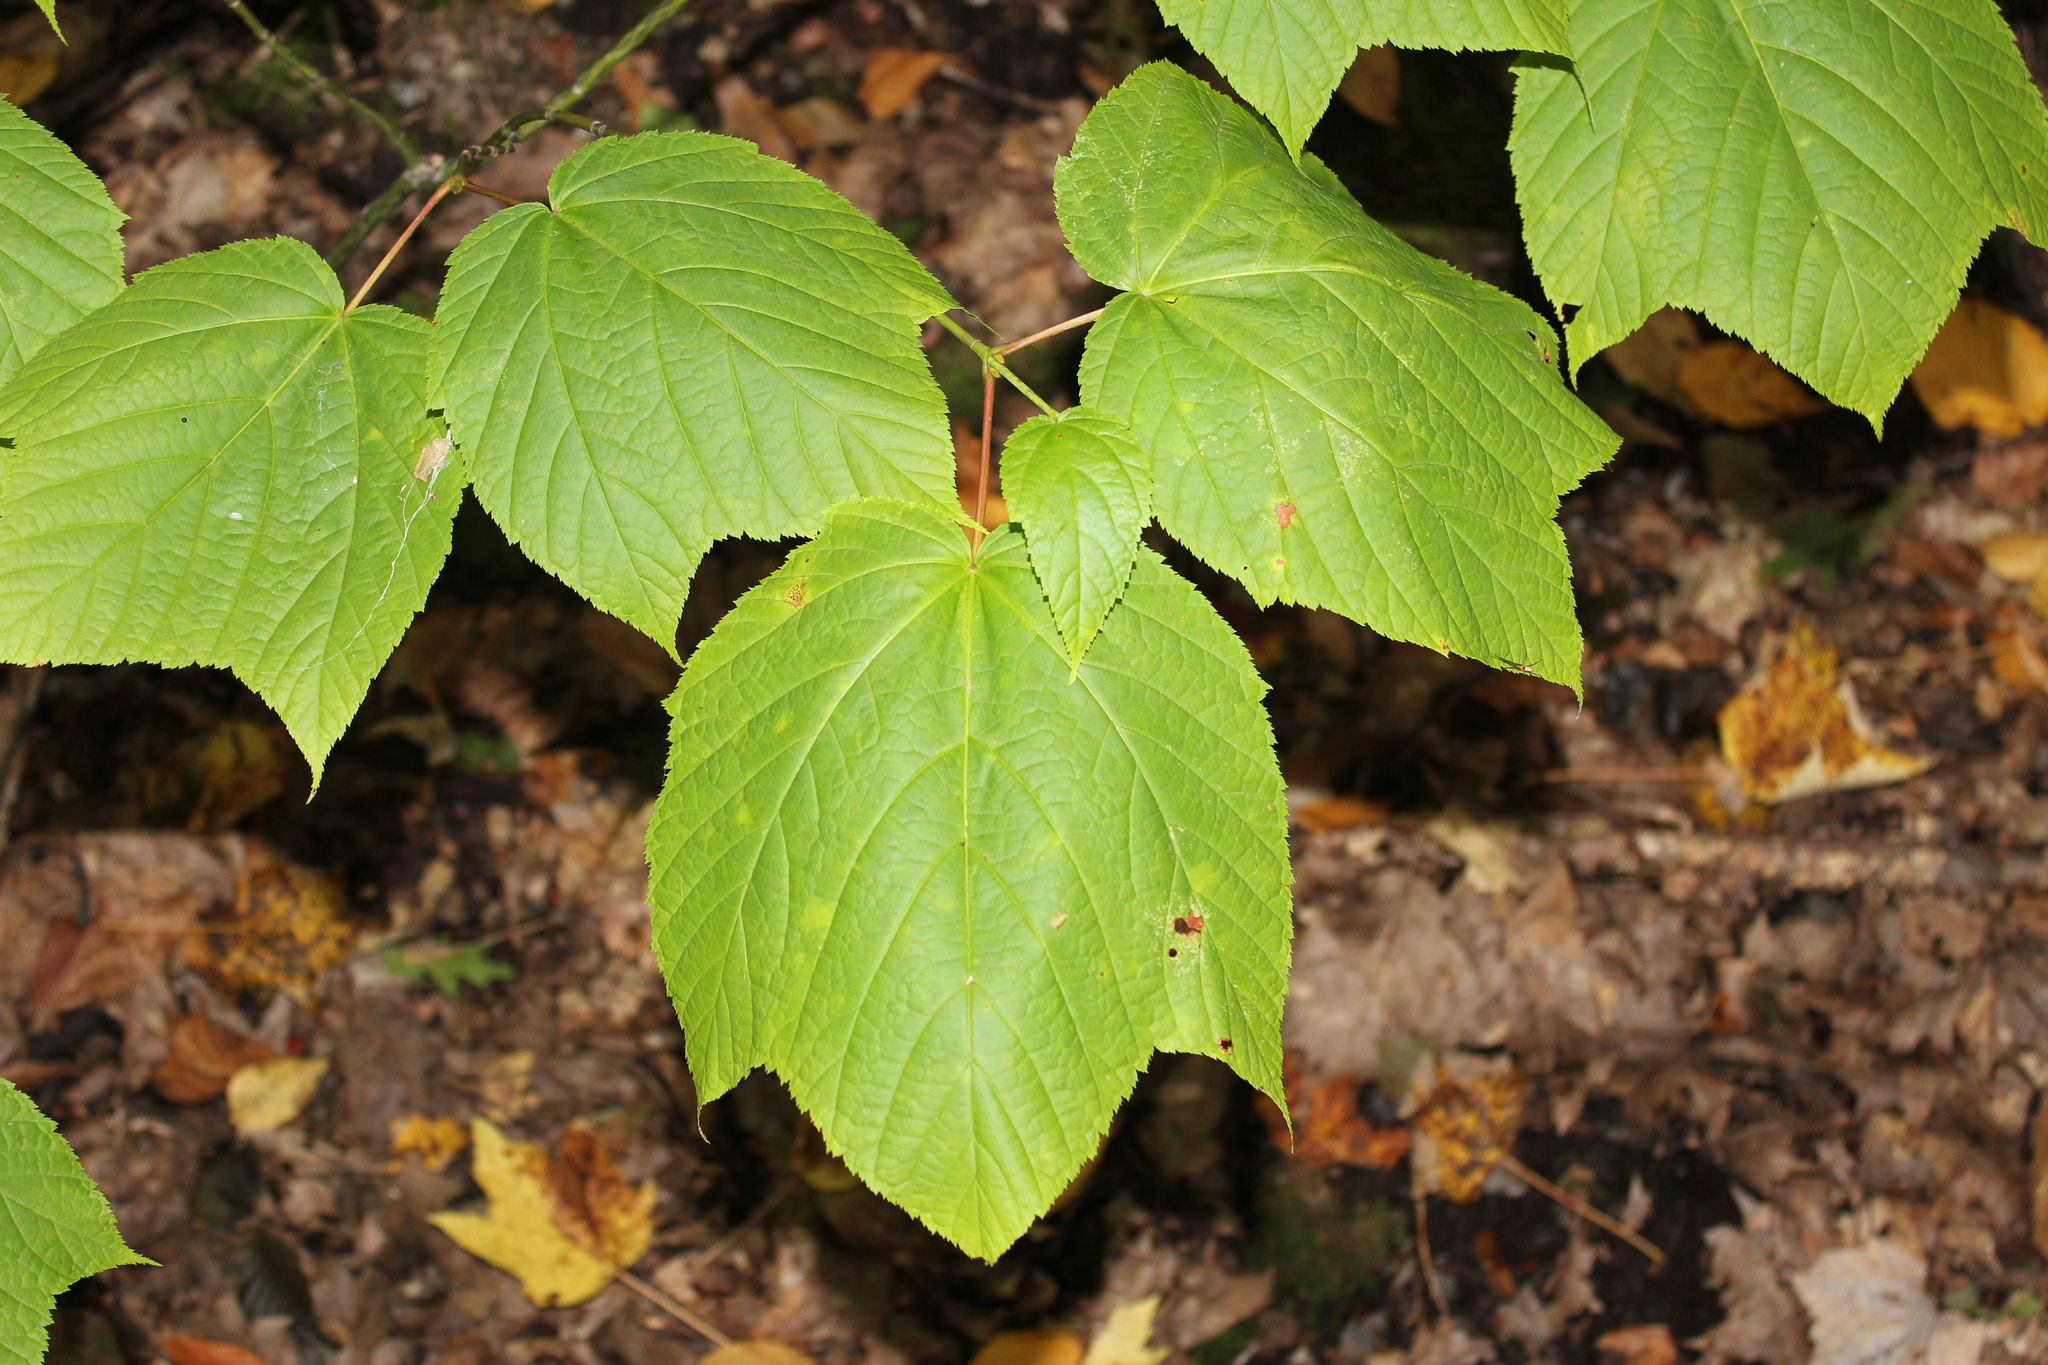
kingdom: Plantae
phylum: Tracheophyta
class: Magnoliopsida
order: Sapindales
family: Sapindaceae
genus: Acer
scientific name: Acer pensylvanicum
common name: Moosewood
